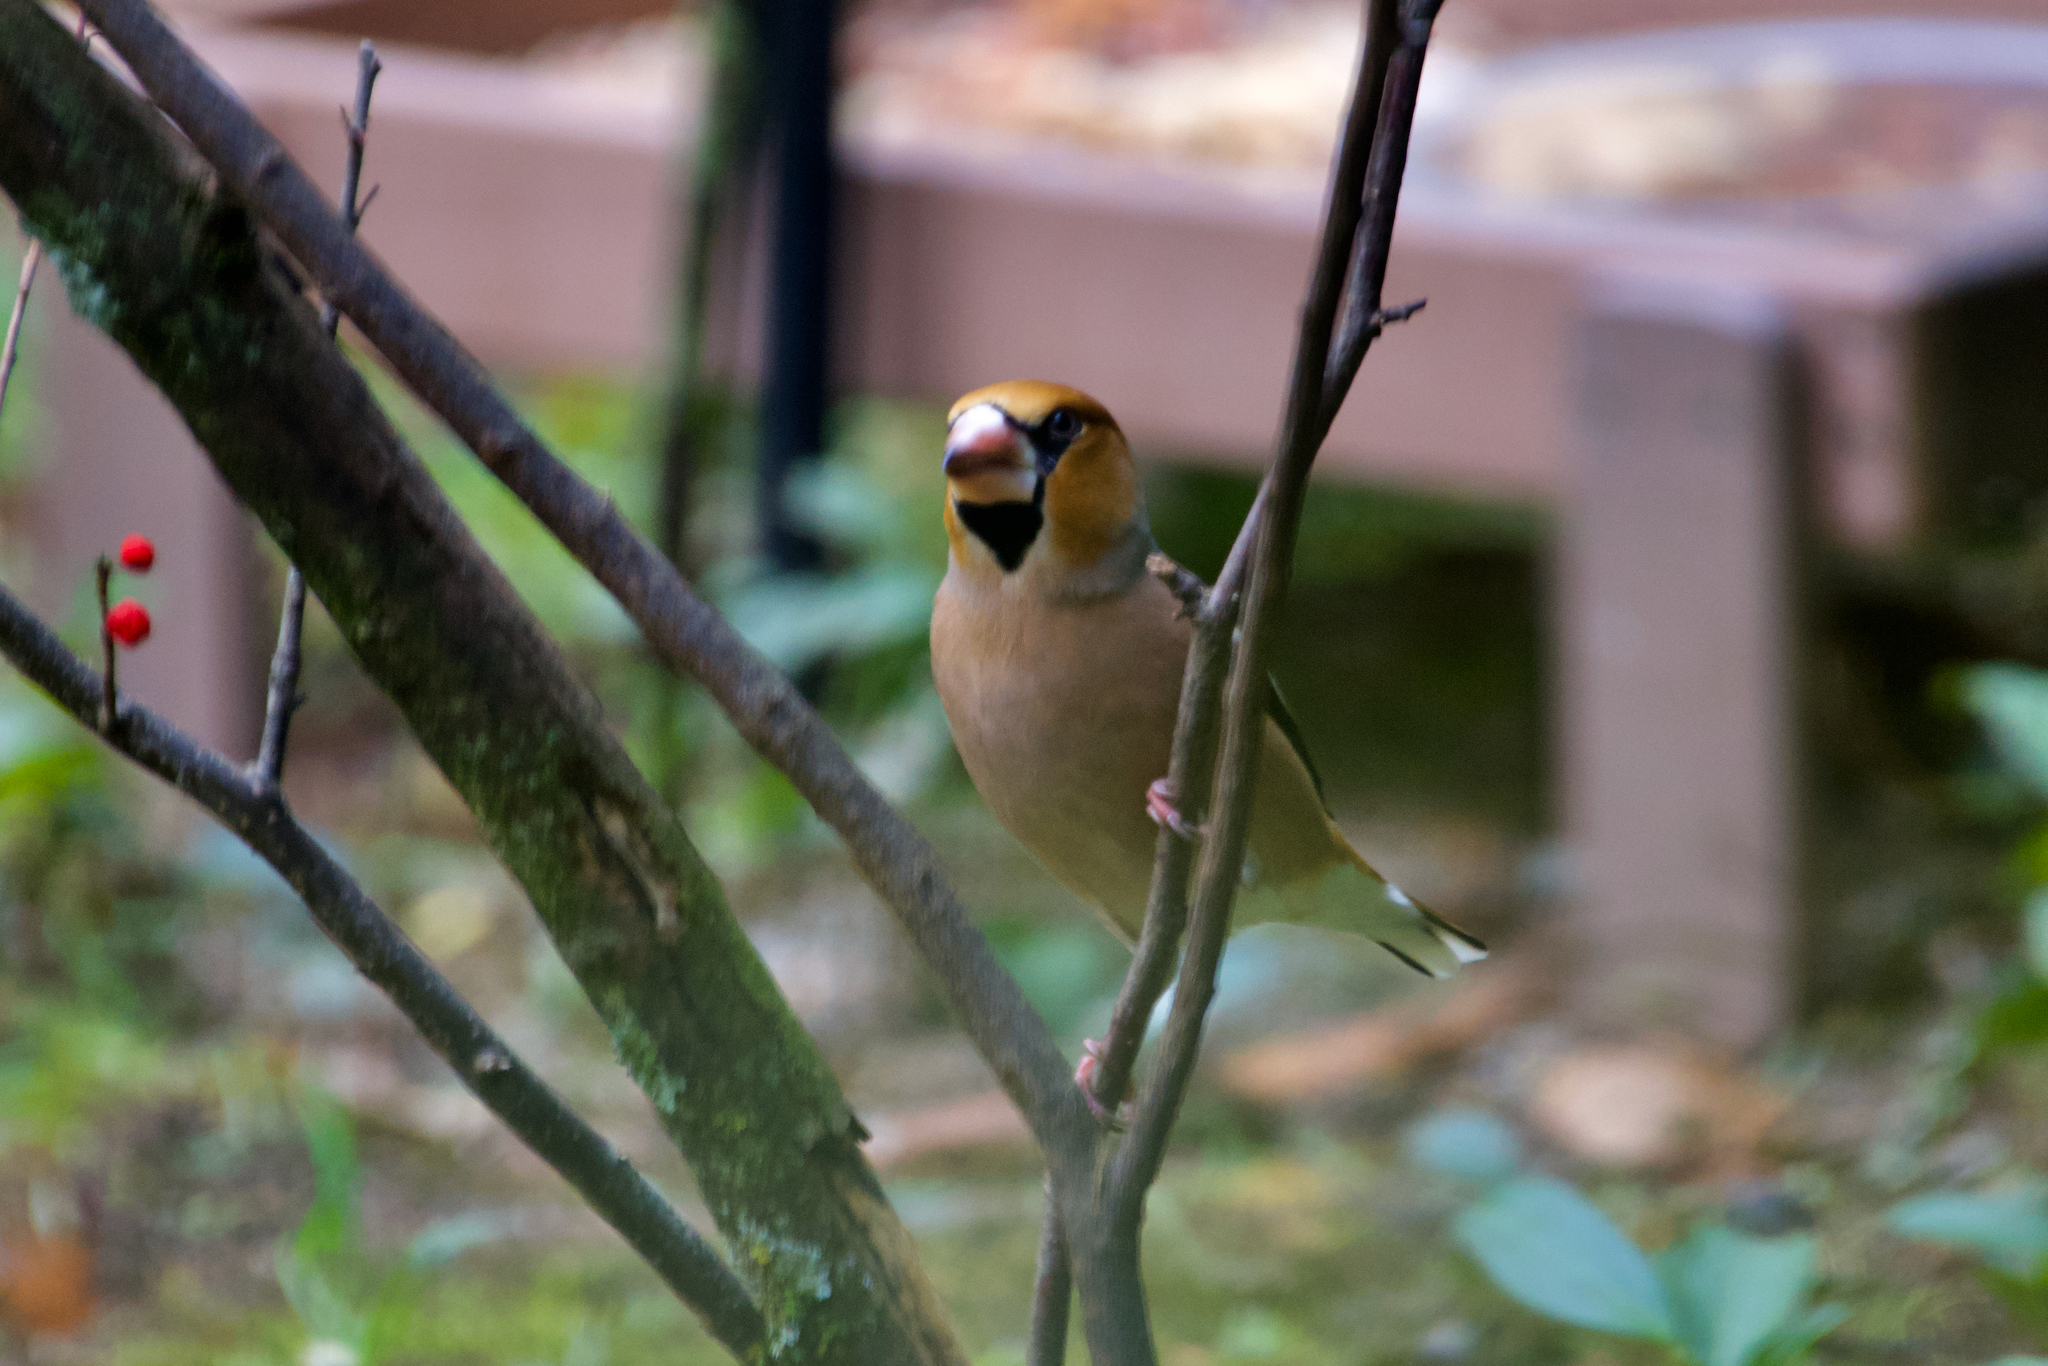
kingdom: Animalia
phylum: Chordata
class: Aves
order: Passeriformes
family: Fringillidae
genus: Coccothraustes
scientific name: Coccothraustes coccothraustes
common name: Hawfinch
